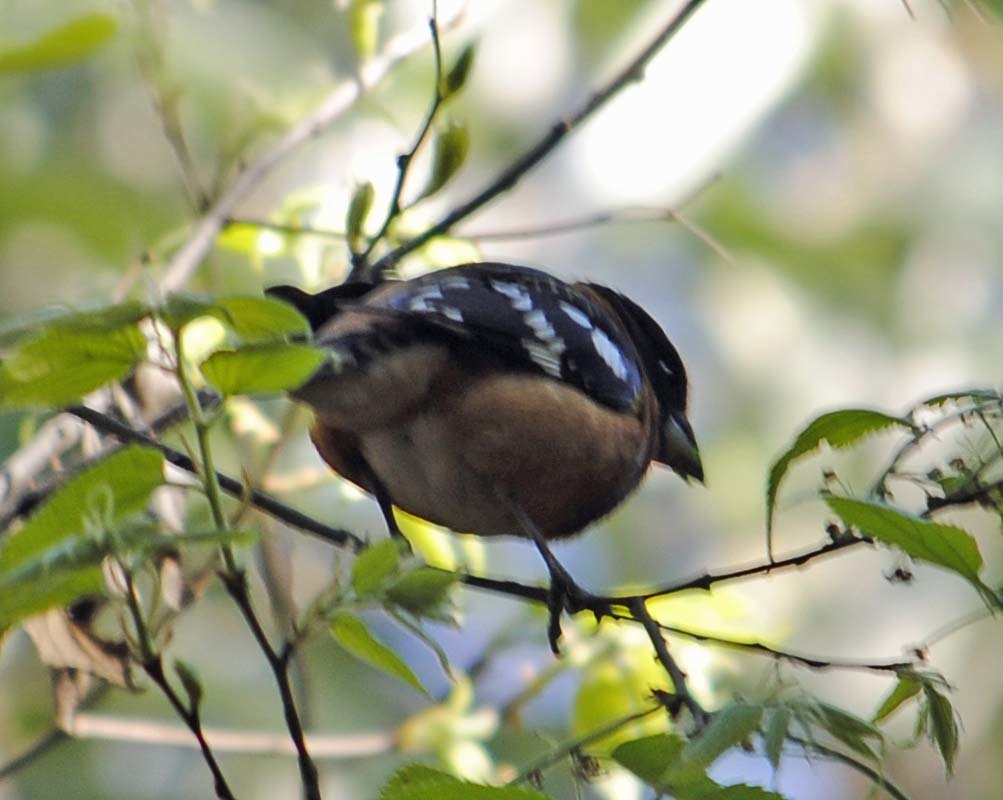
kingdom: Animalia
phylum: Chordata
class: Aves
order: Passeriformes
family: Cardinalidae
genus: Pheucticus
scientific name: Pheucticus melanocephalus
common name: Black-headed grosbeak
